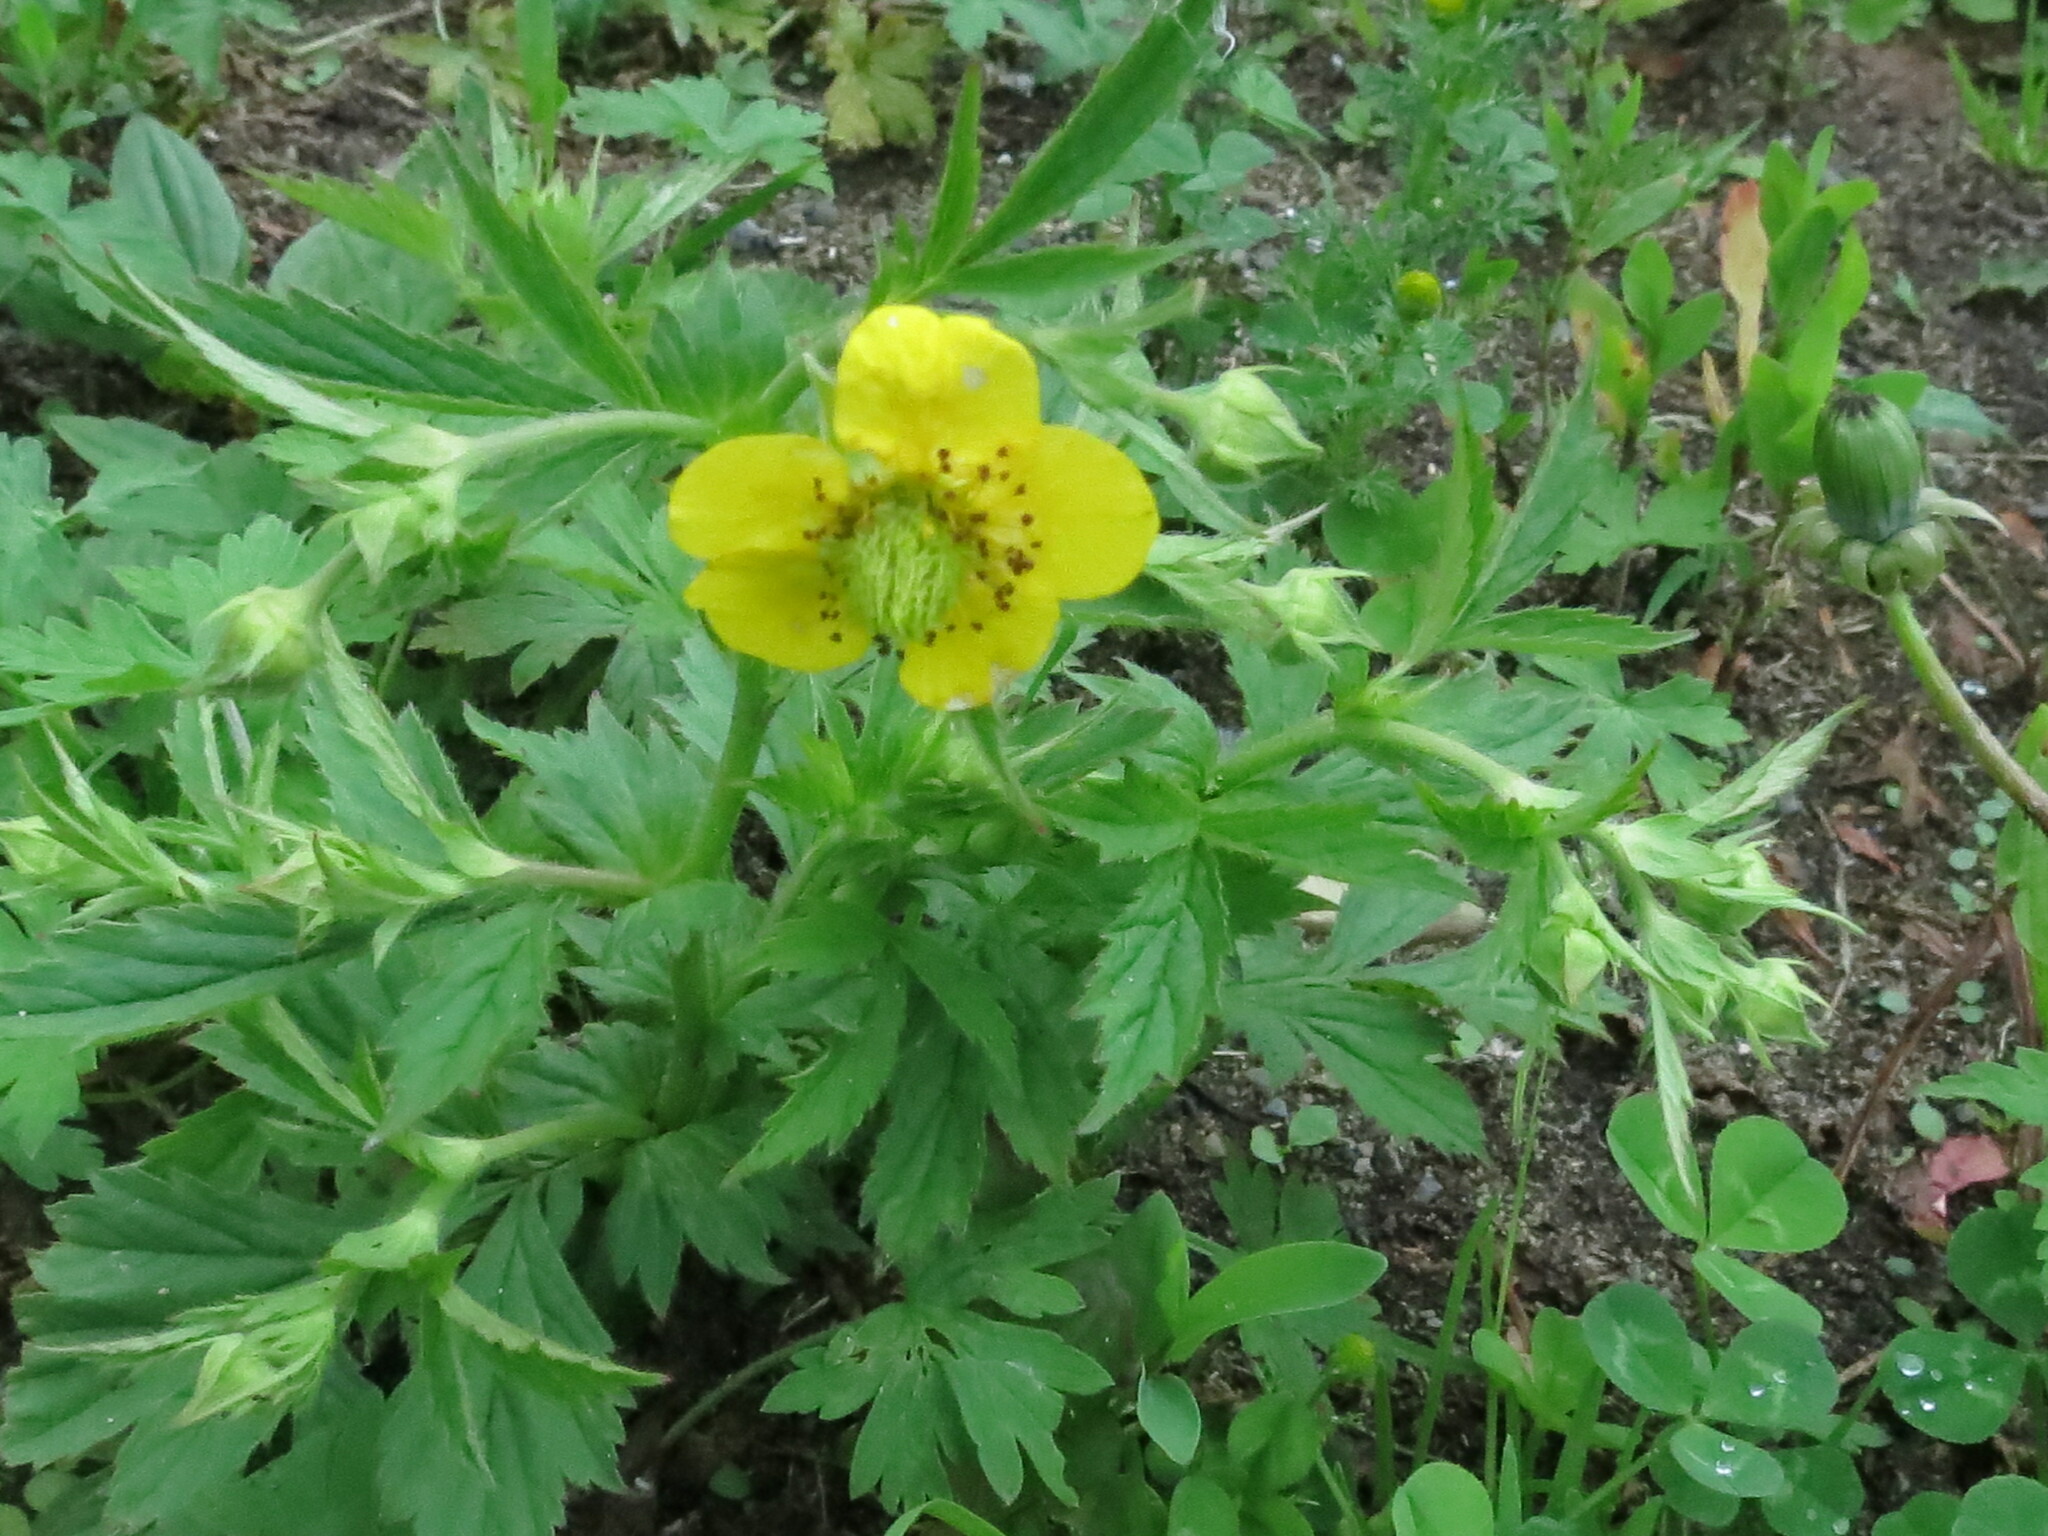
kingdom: Plantae
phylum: Tracheophyta
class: Magnoliopsida
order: Rosales
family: Rosaceae
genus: Geum
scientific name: Geum aleppicum
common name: Yellow avens
